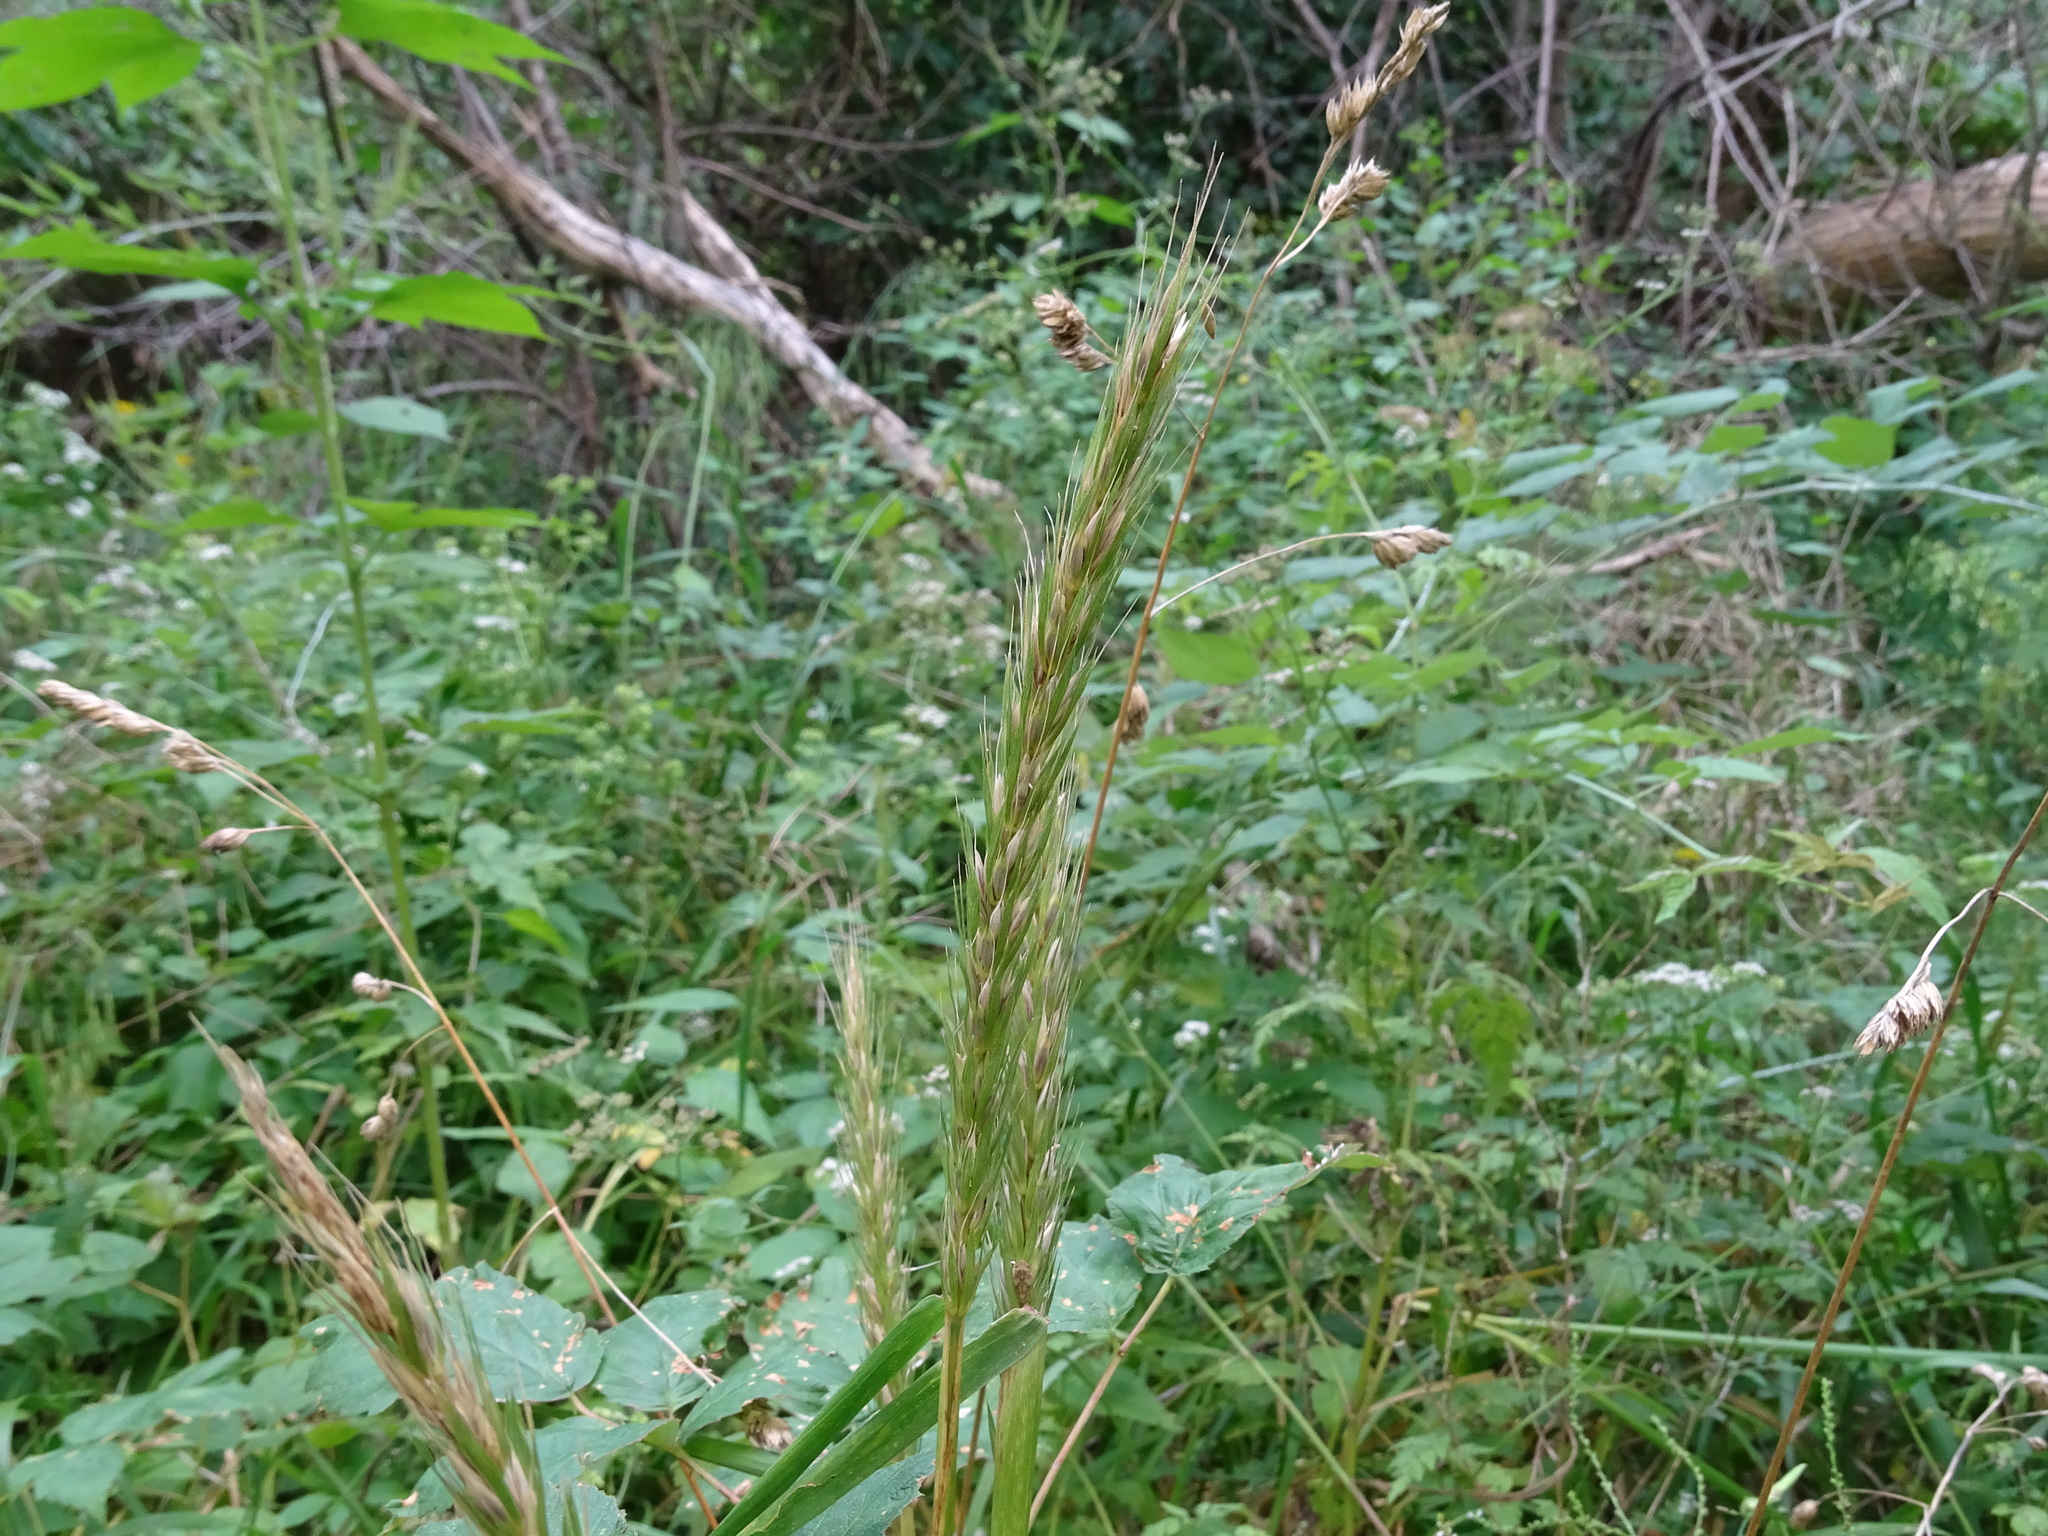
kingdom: Plantae
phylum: Tracheophyta
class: Liliopsida
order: Poales
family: Poaceae
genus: Elymus
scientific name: Elymus virginicus
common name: Common eastern wildrye
